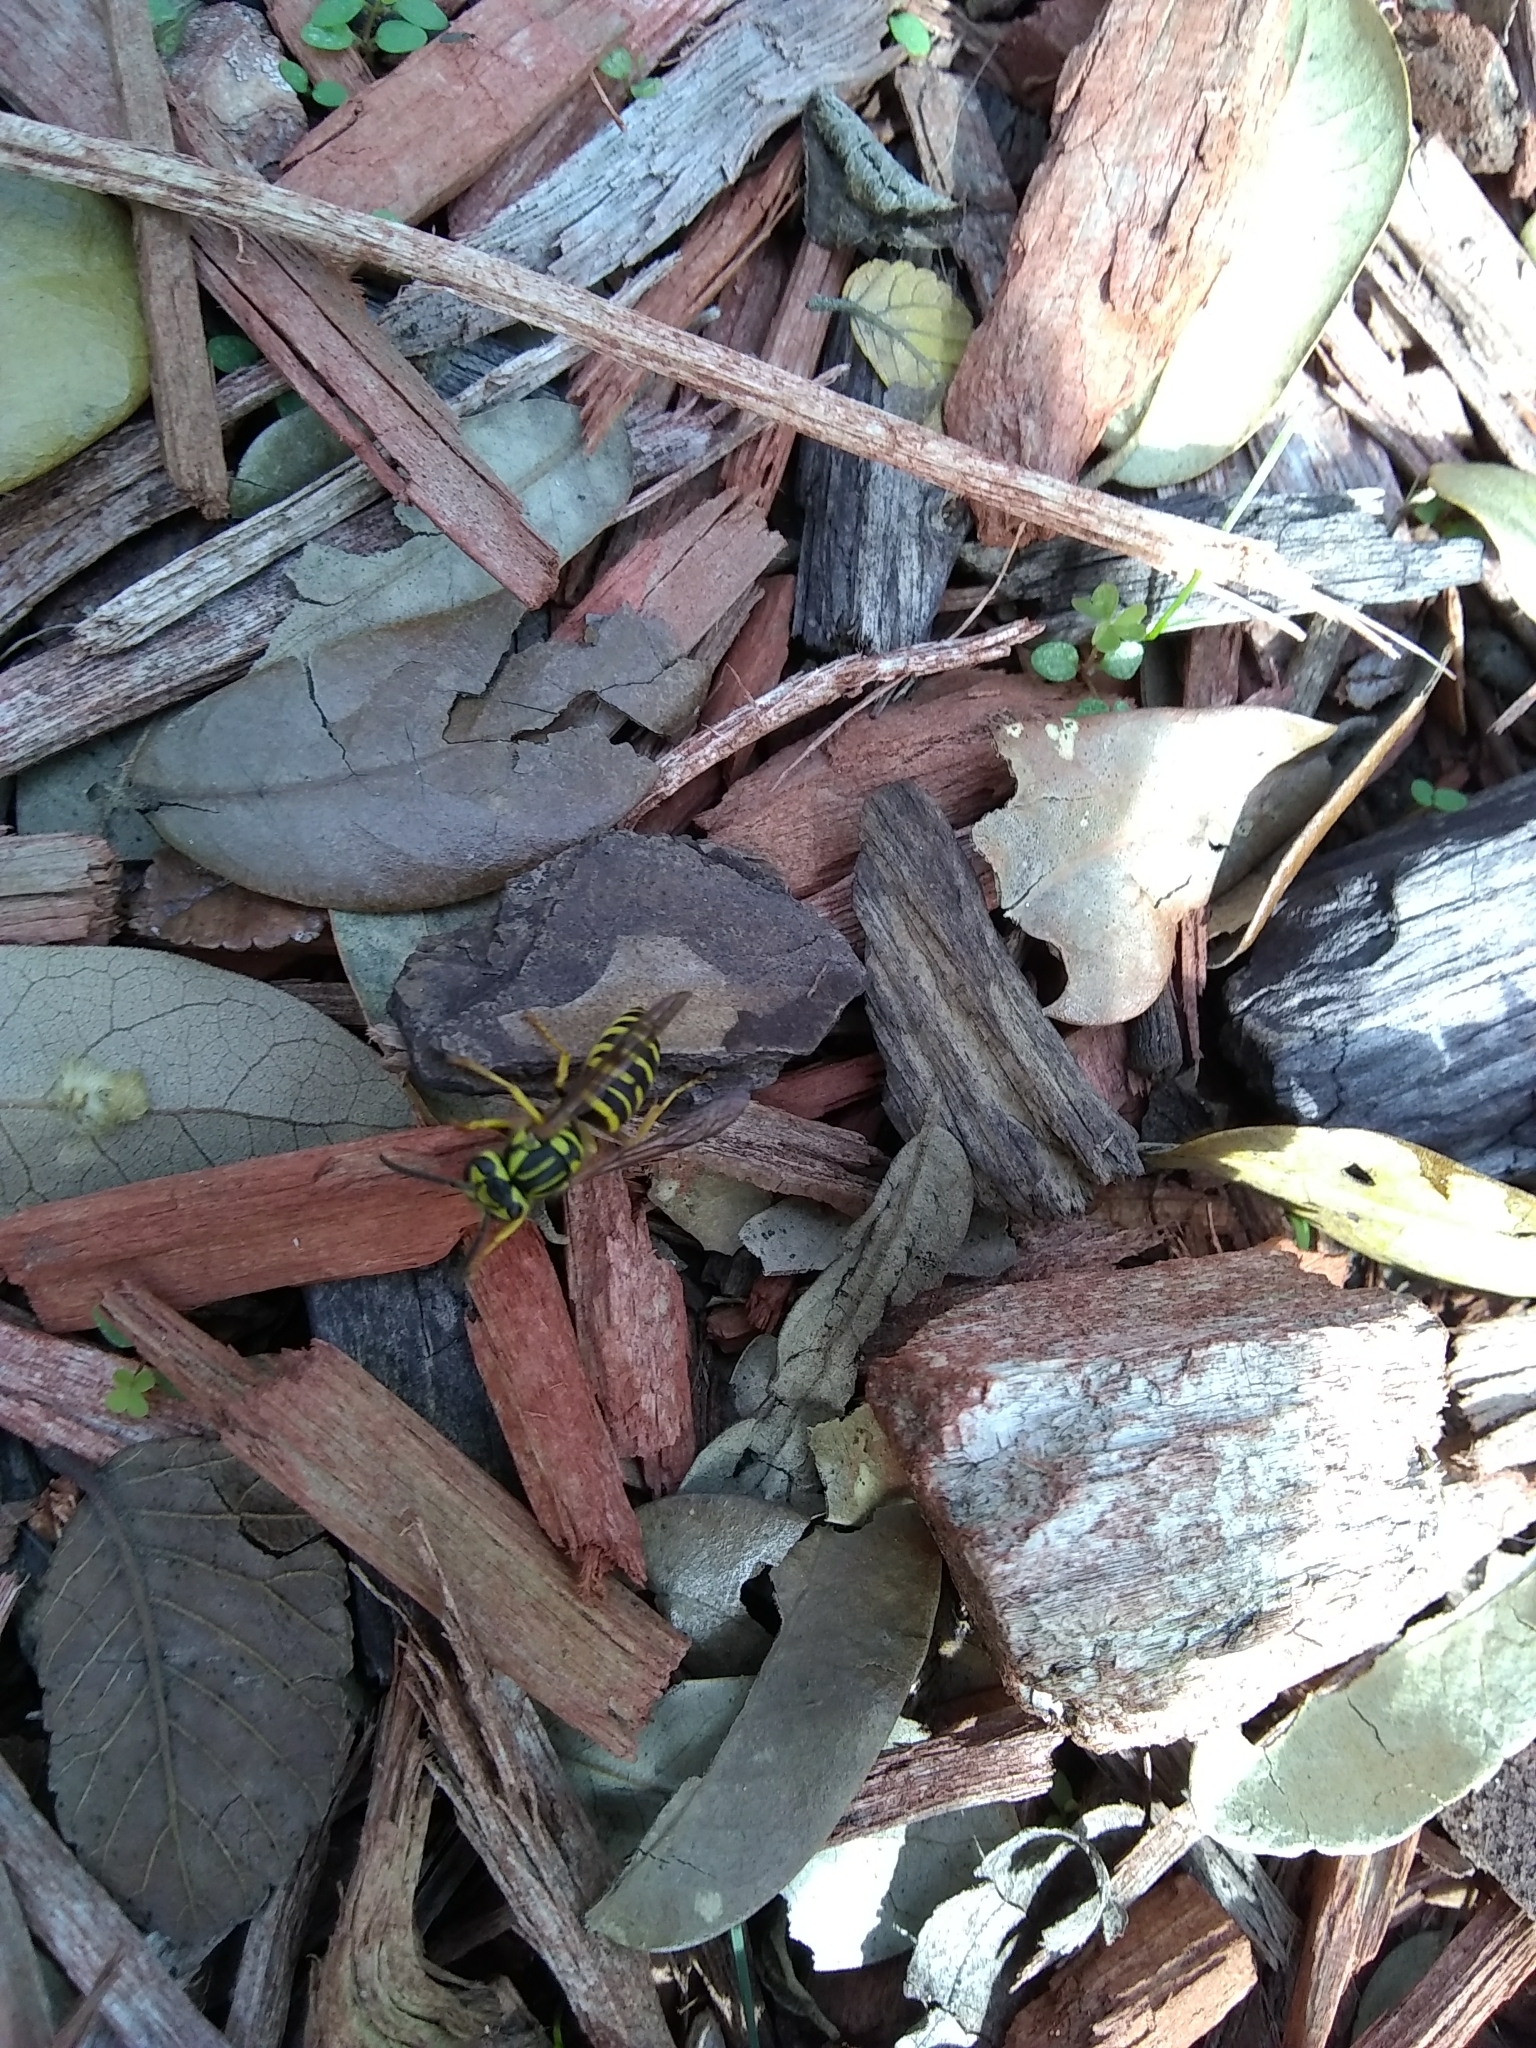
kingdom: Animalia
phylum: Arthropoda
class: Insecta
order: Hymenoptera
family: Vespidae
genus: Vespula
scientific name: Vespula squamosa
